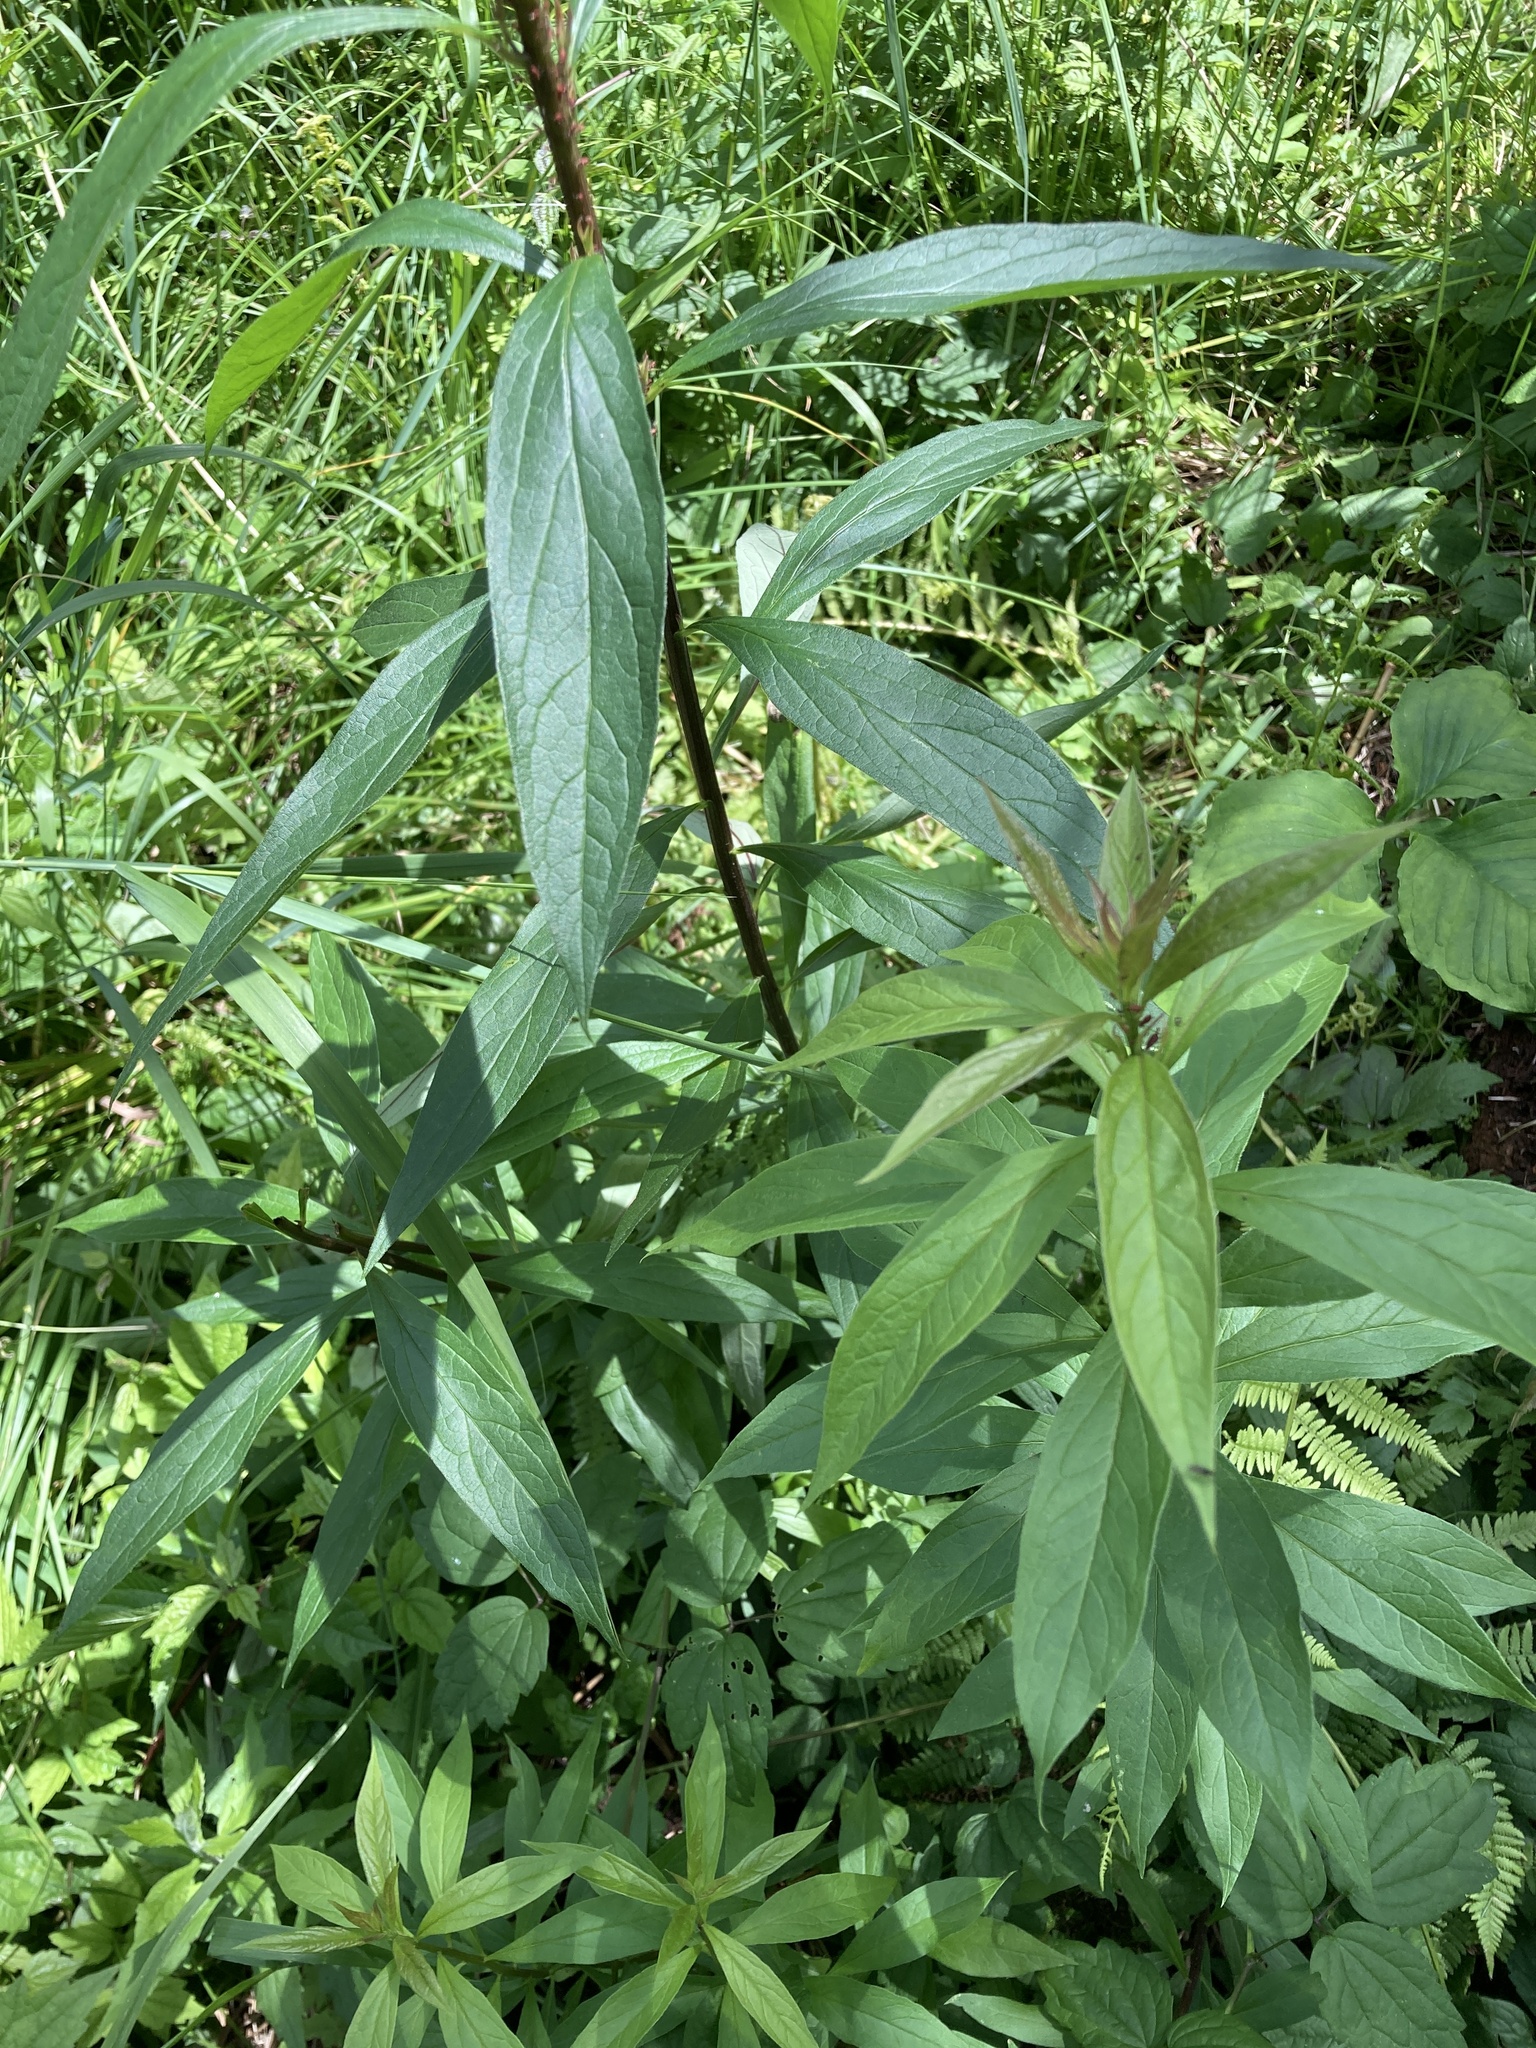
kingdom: Plantae
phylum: Tracheophyta
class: Magnoliopsida
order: Asterales
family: Asteraceae
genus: Doellingeria
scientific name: Doellingeria umbellata
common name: Flat-top white aster
